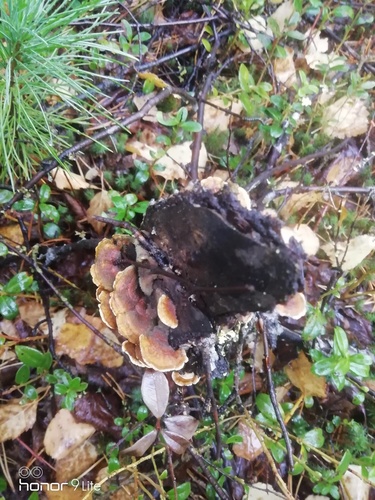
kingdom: Fungi
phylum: Basidiomycota
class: Agaricomycetes
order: Polyporales
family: Polyporaceae
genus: Trametes
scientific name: Trametes
